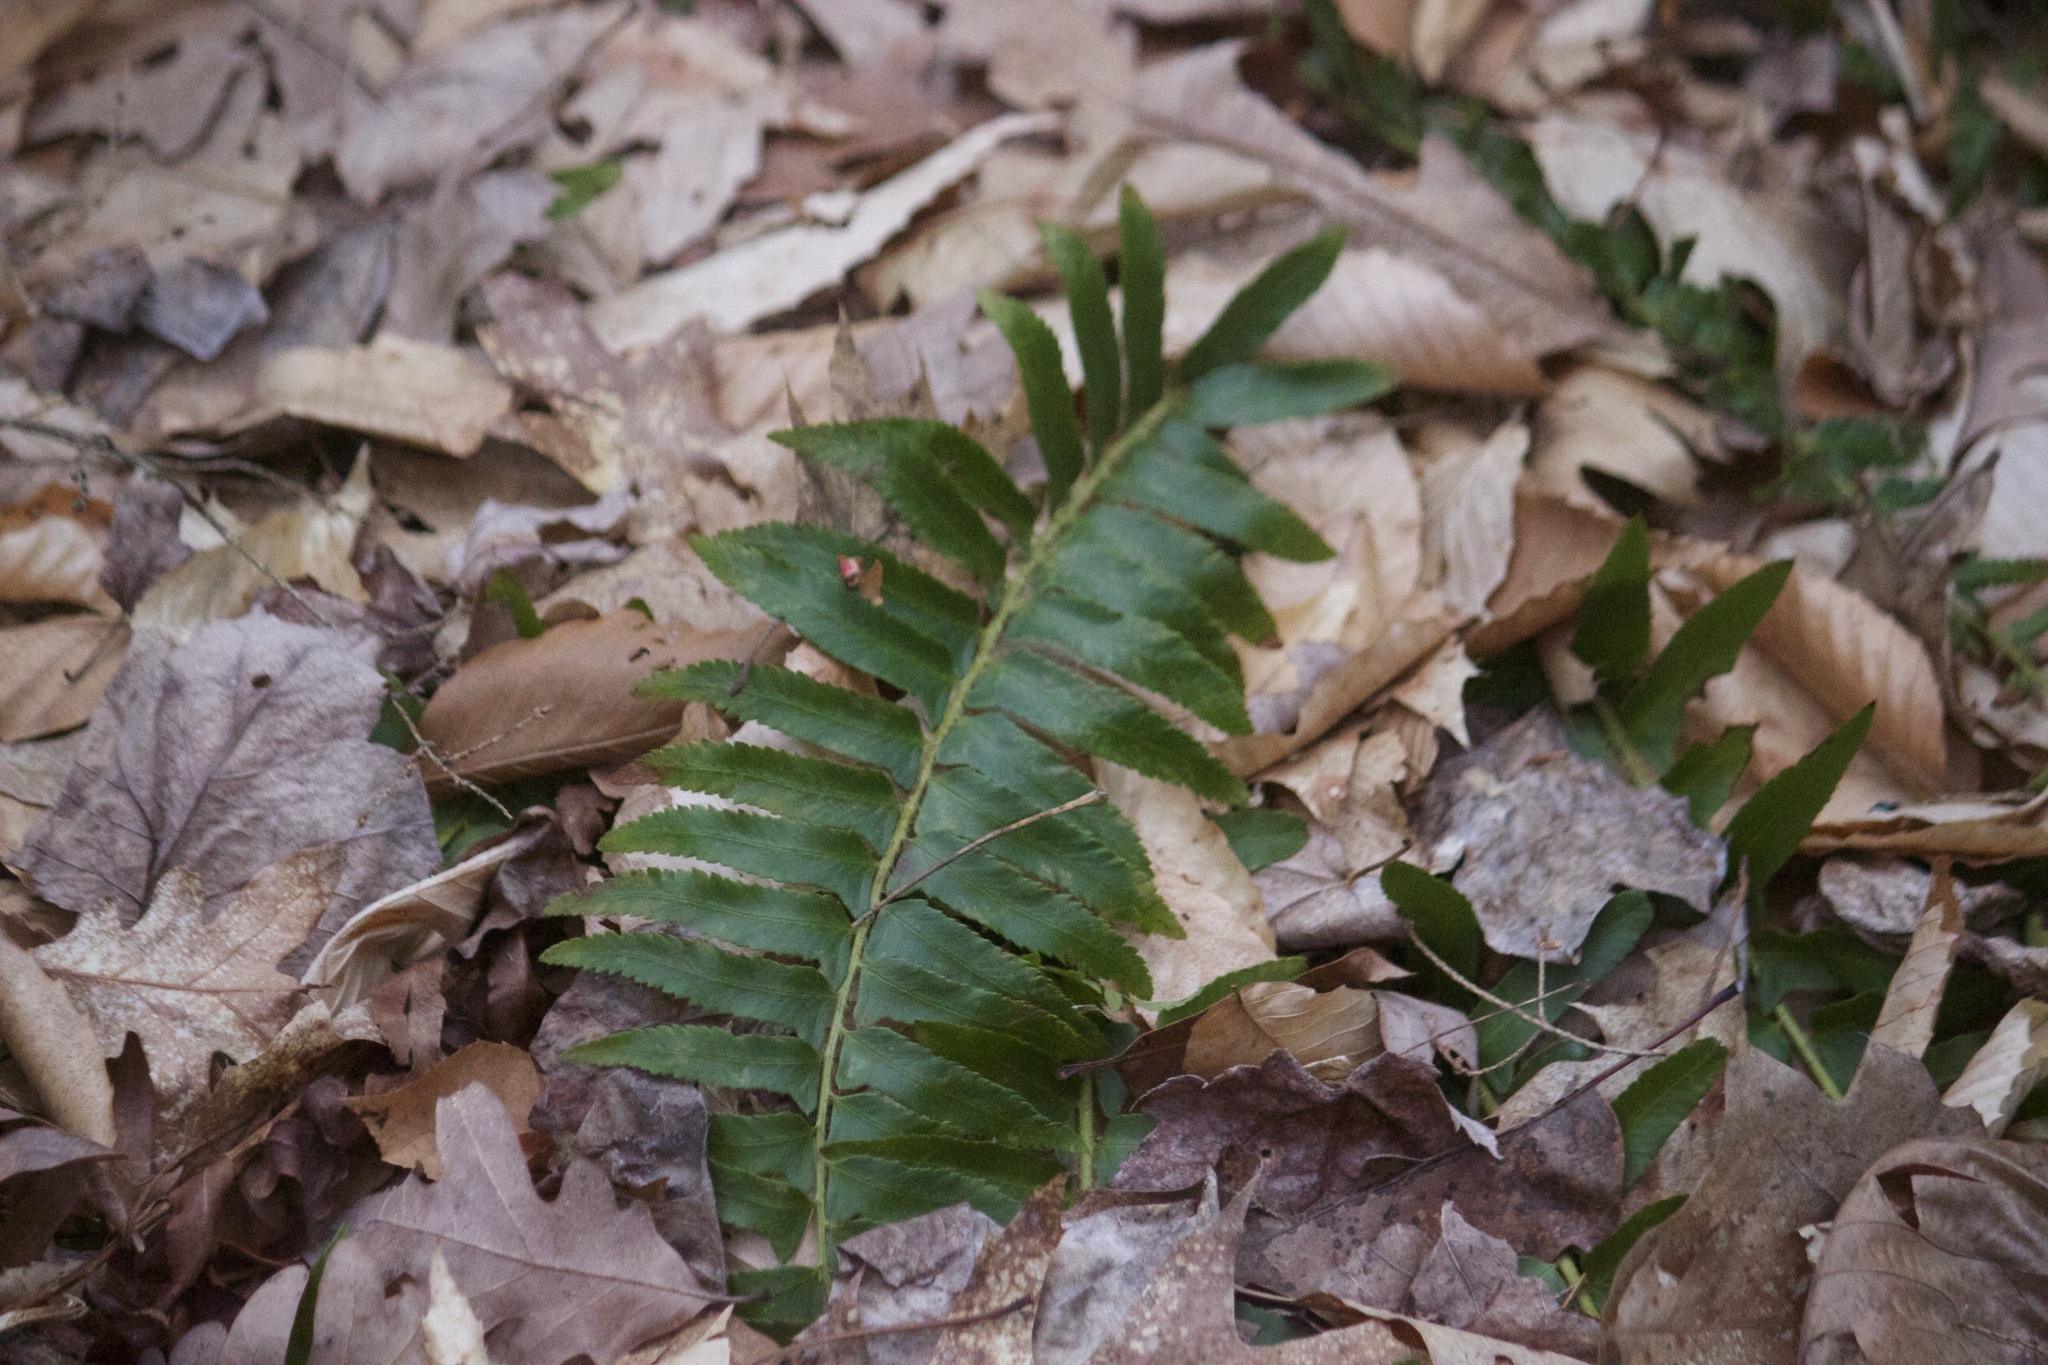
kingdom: Plantae
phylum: Tracheophyta
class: Polypodiopsida
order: Polypodiales
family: Dryopteridaceae
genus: Polystichum
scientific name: Polystichum acrostichoides
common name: Christmas fern
